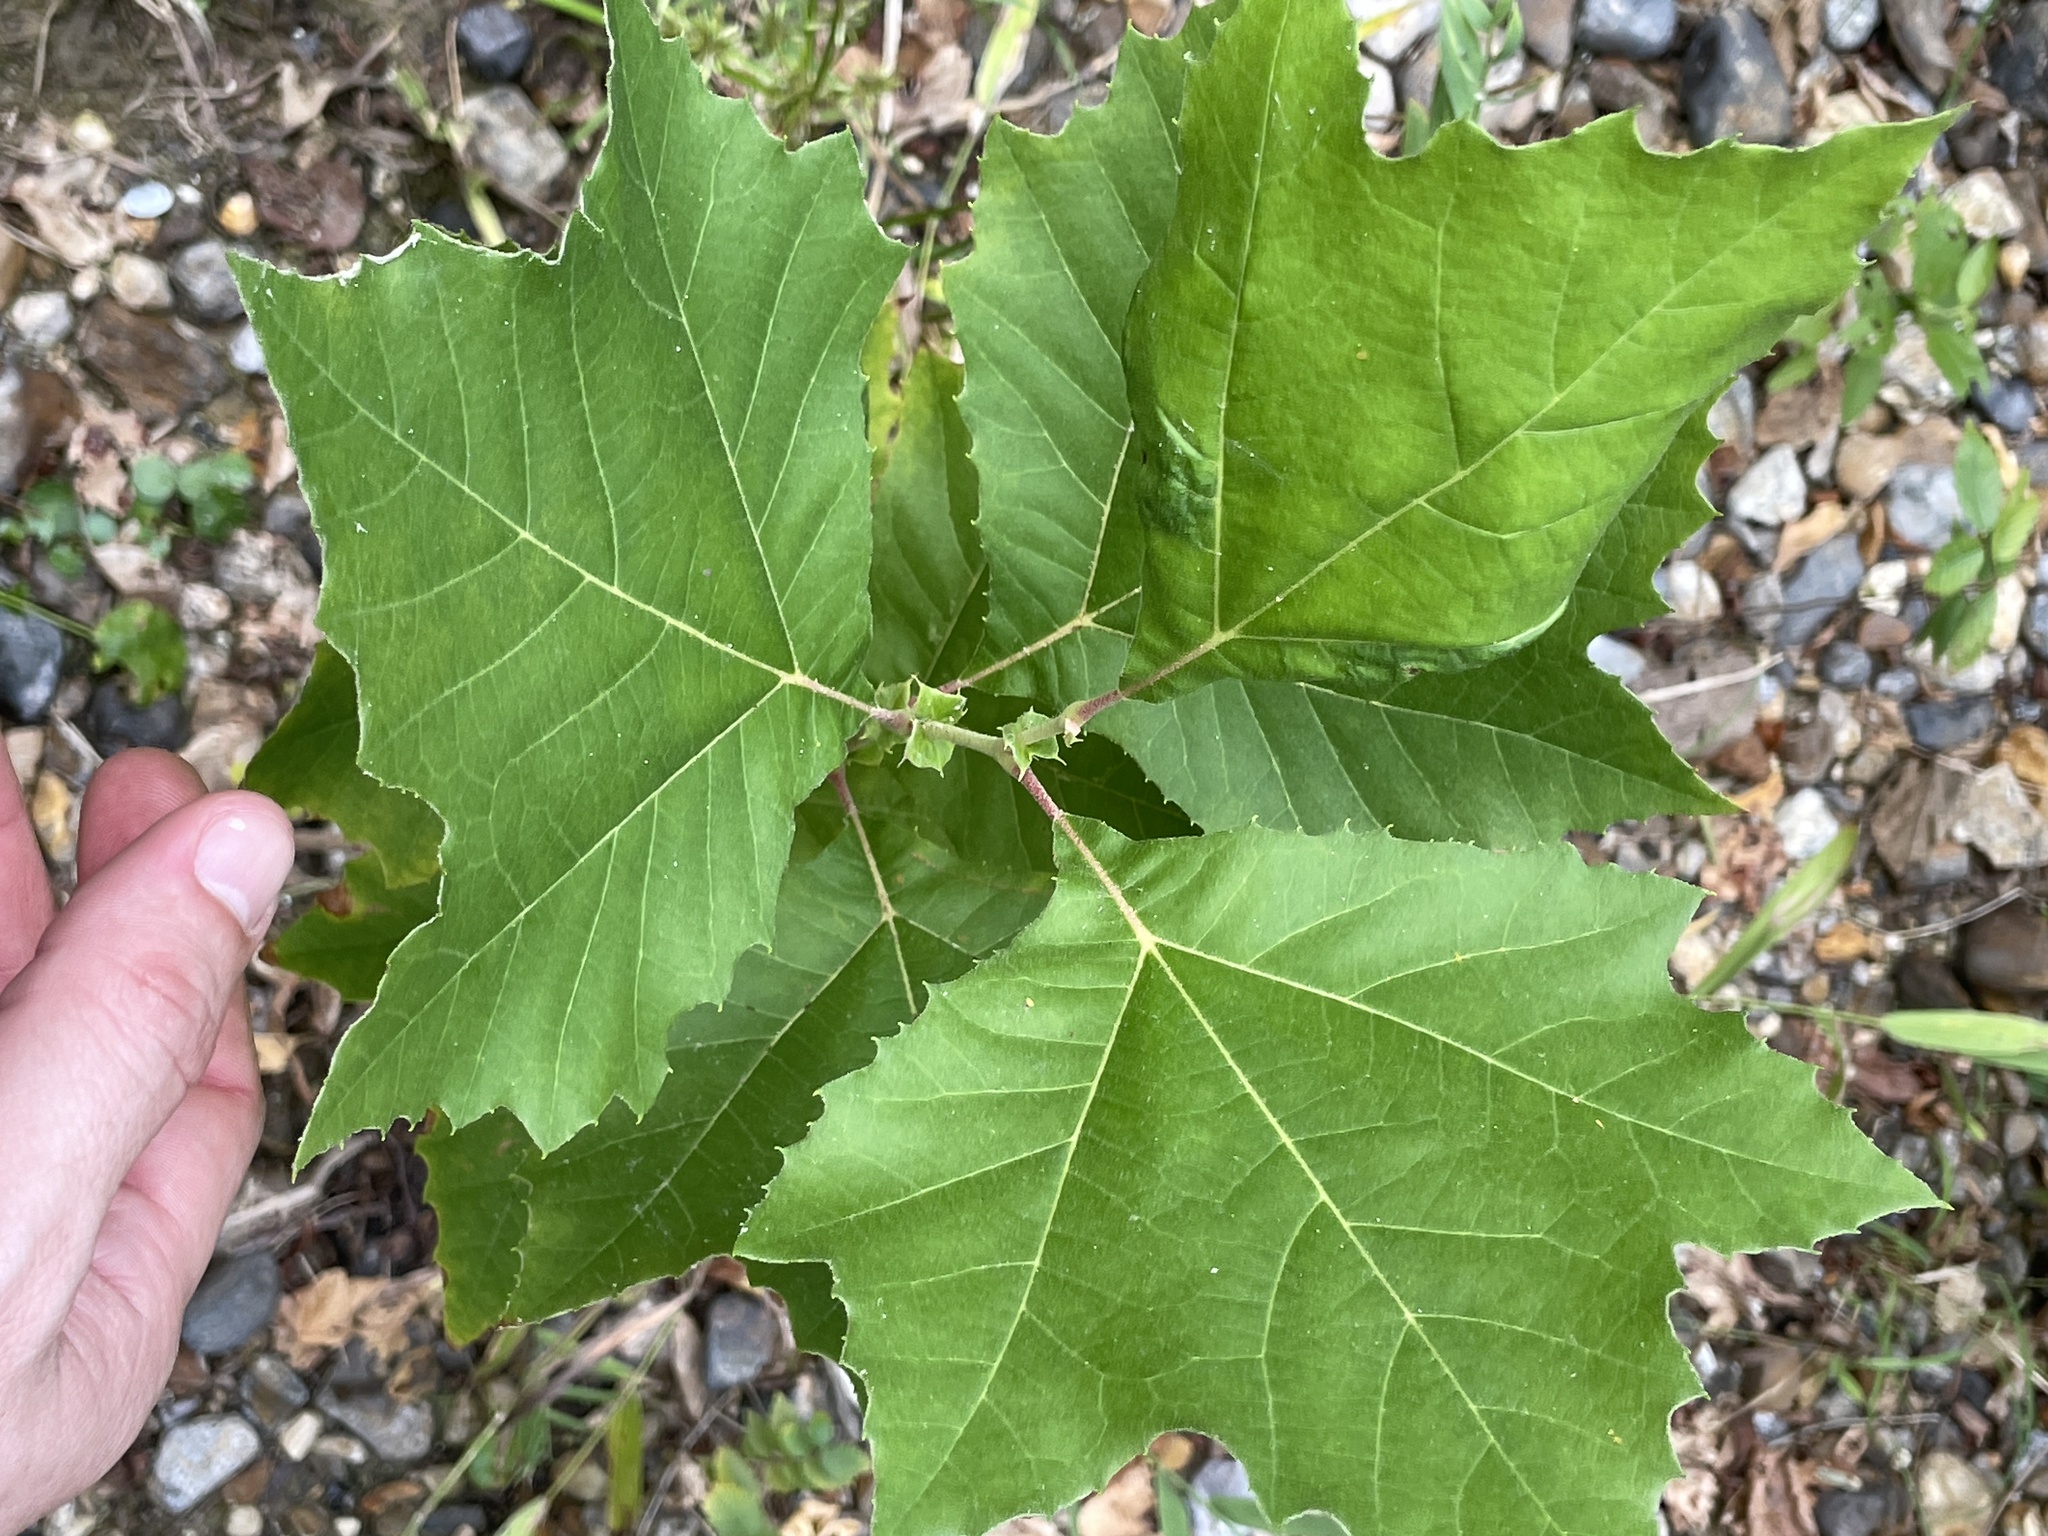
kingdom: Plantae
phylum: Tracheophyta
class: Magnoliopsida
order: Proteales
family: Platanaceae
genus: Platanus
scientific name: Platanus occidentalis
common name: American sycamore
